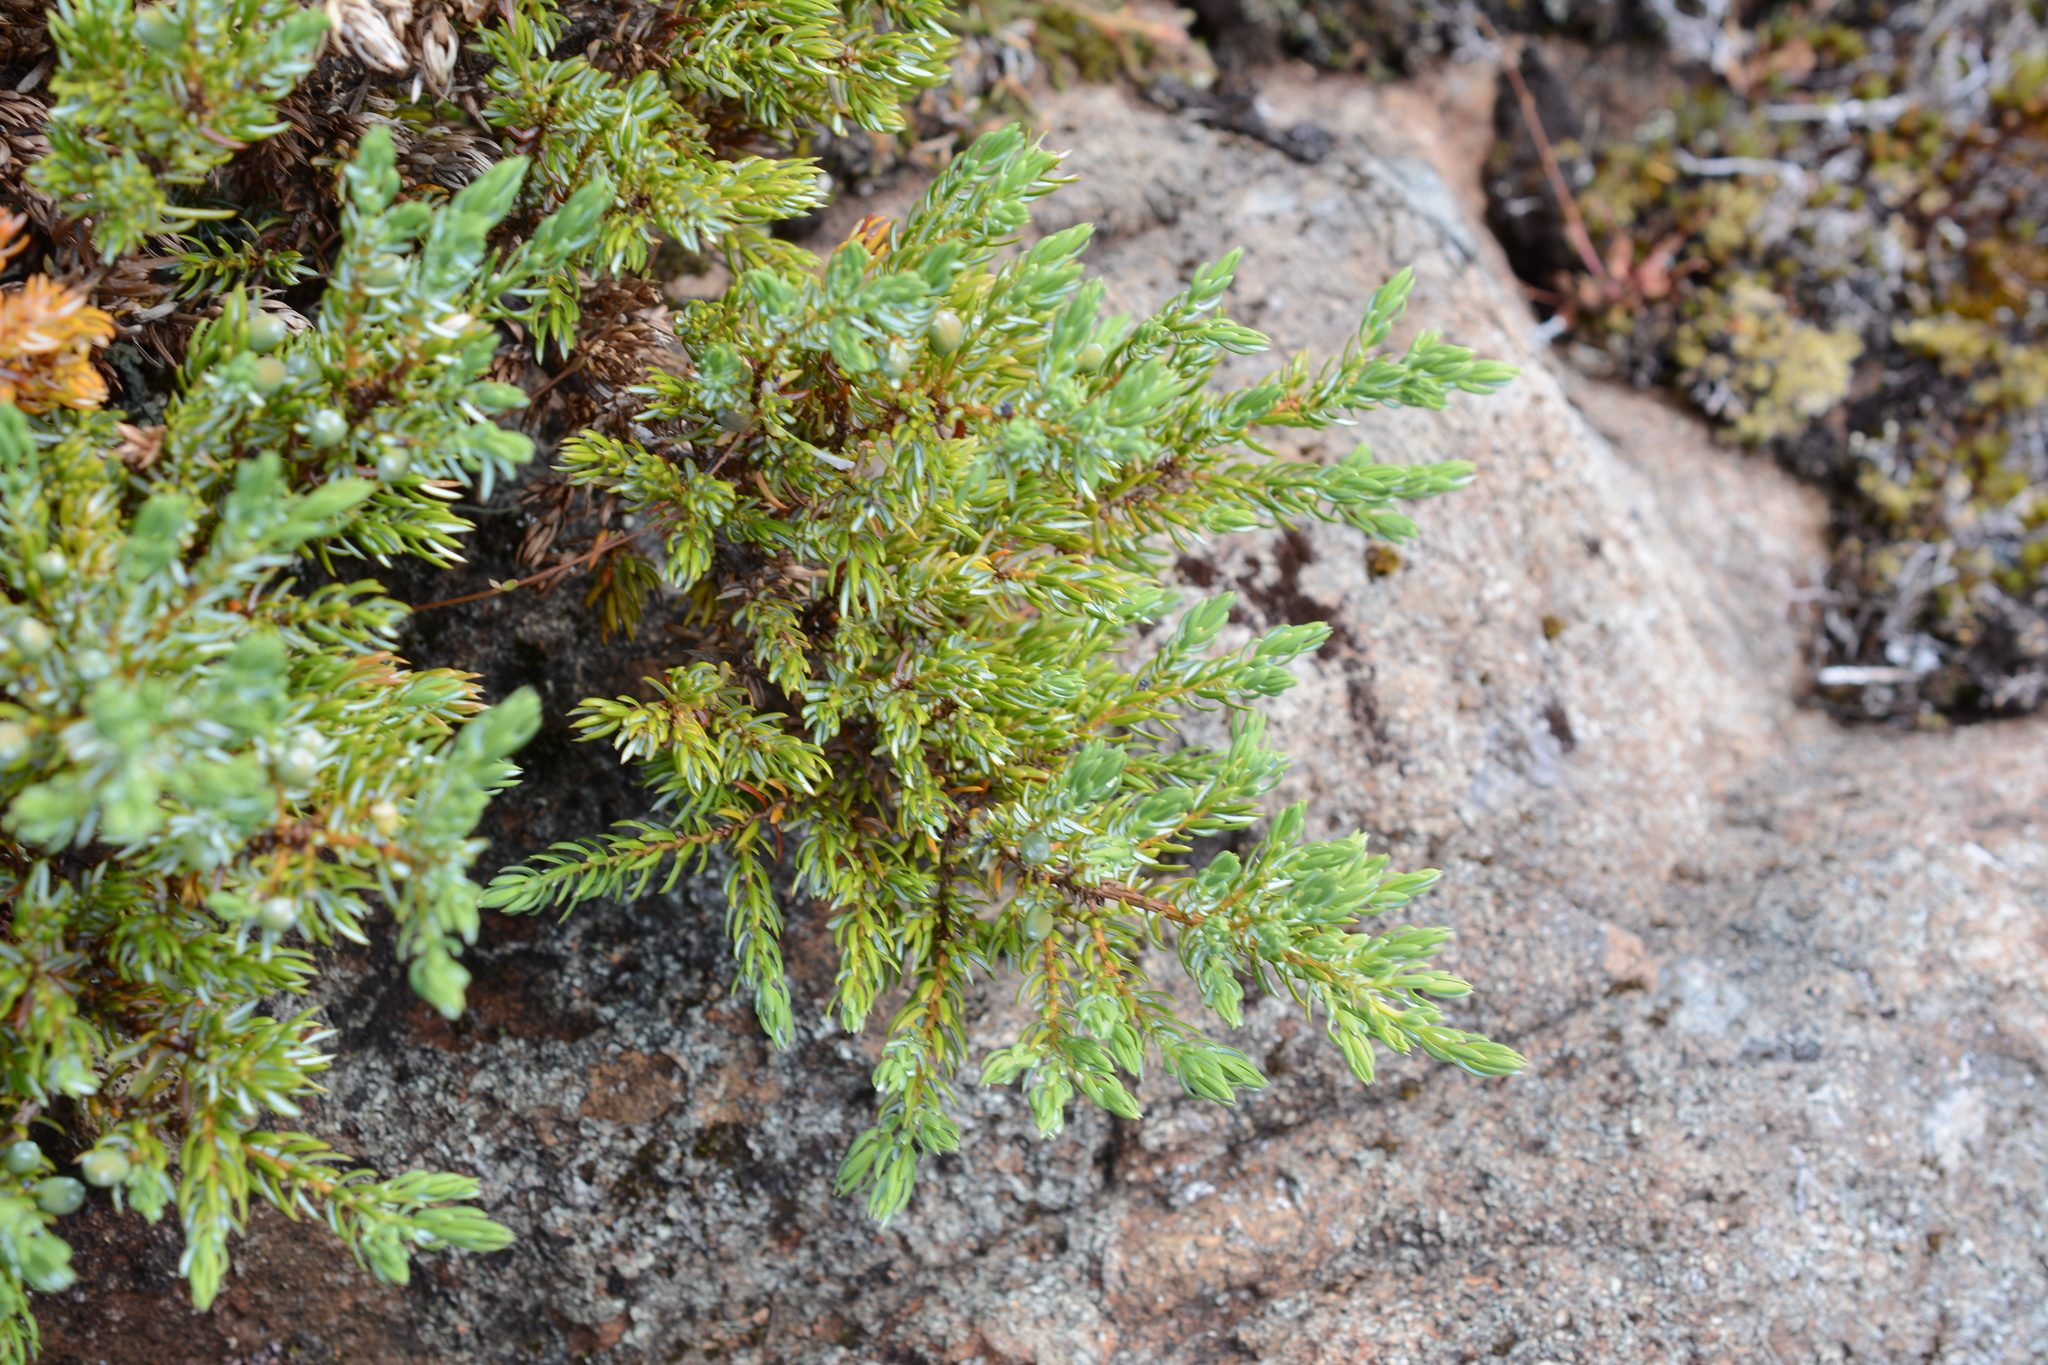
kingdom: Plantae
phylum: Tracheophyta
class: Pinopsida
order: Pinales
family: Cupressaceae
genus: Juniperus
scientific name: Juniperus communis
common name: Common juniper
